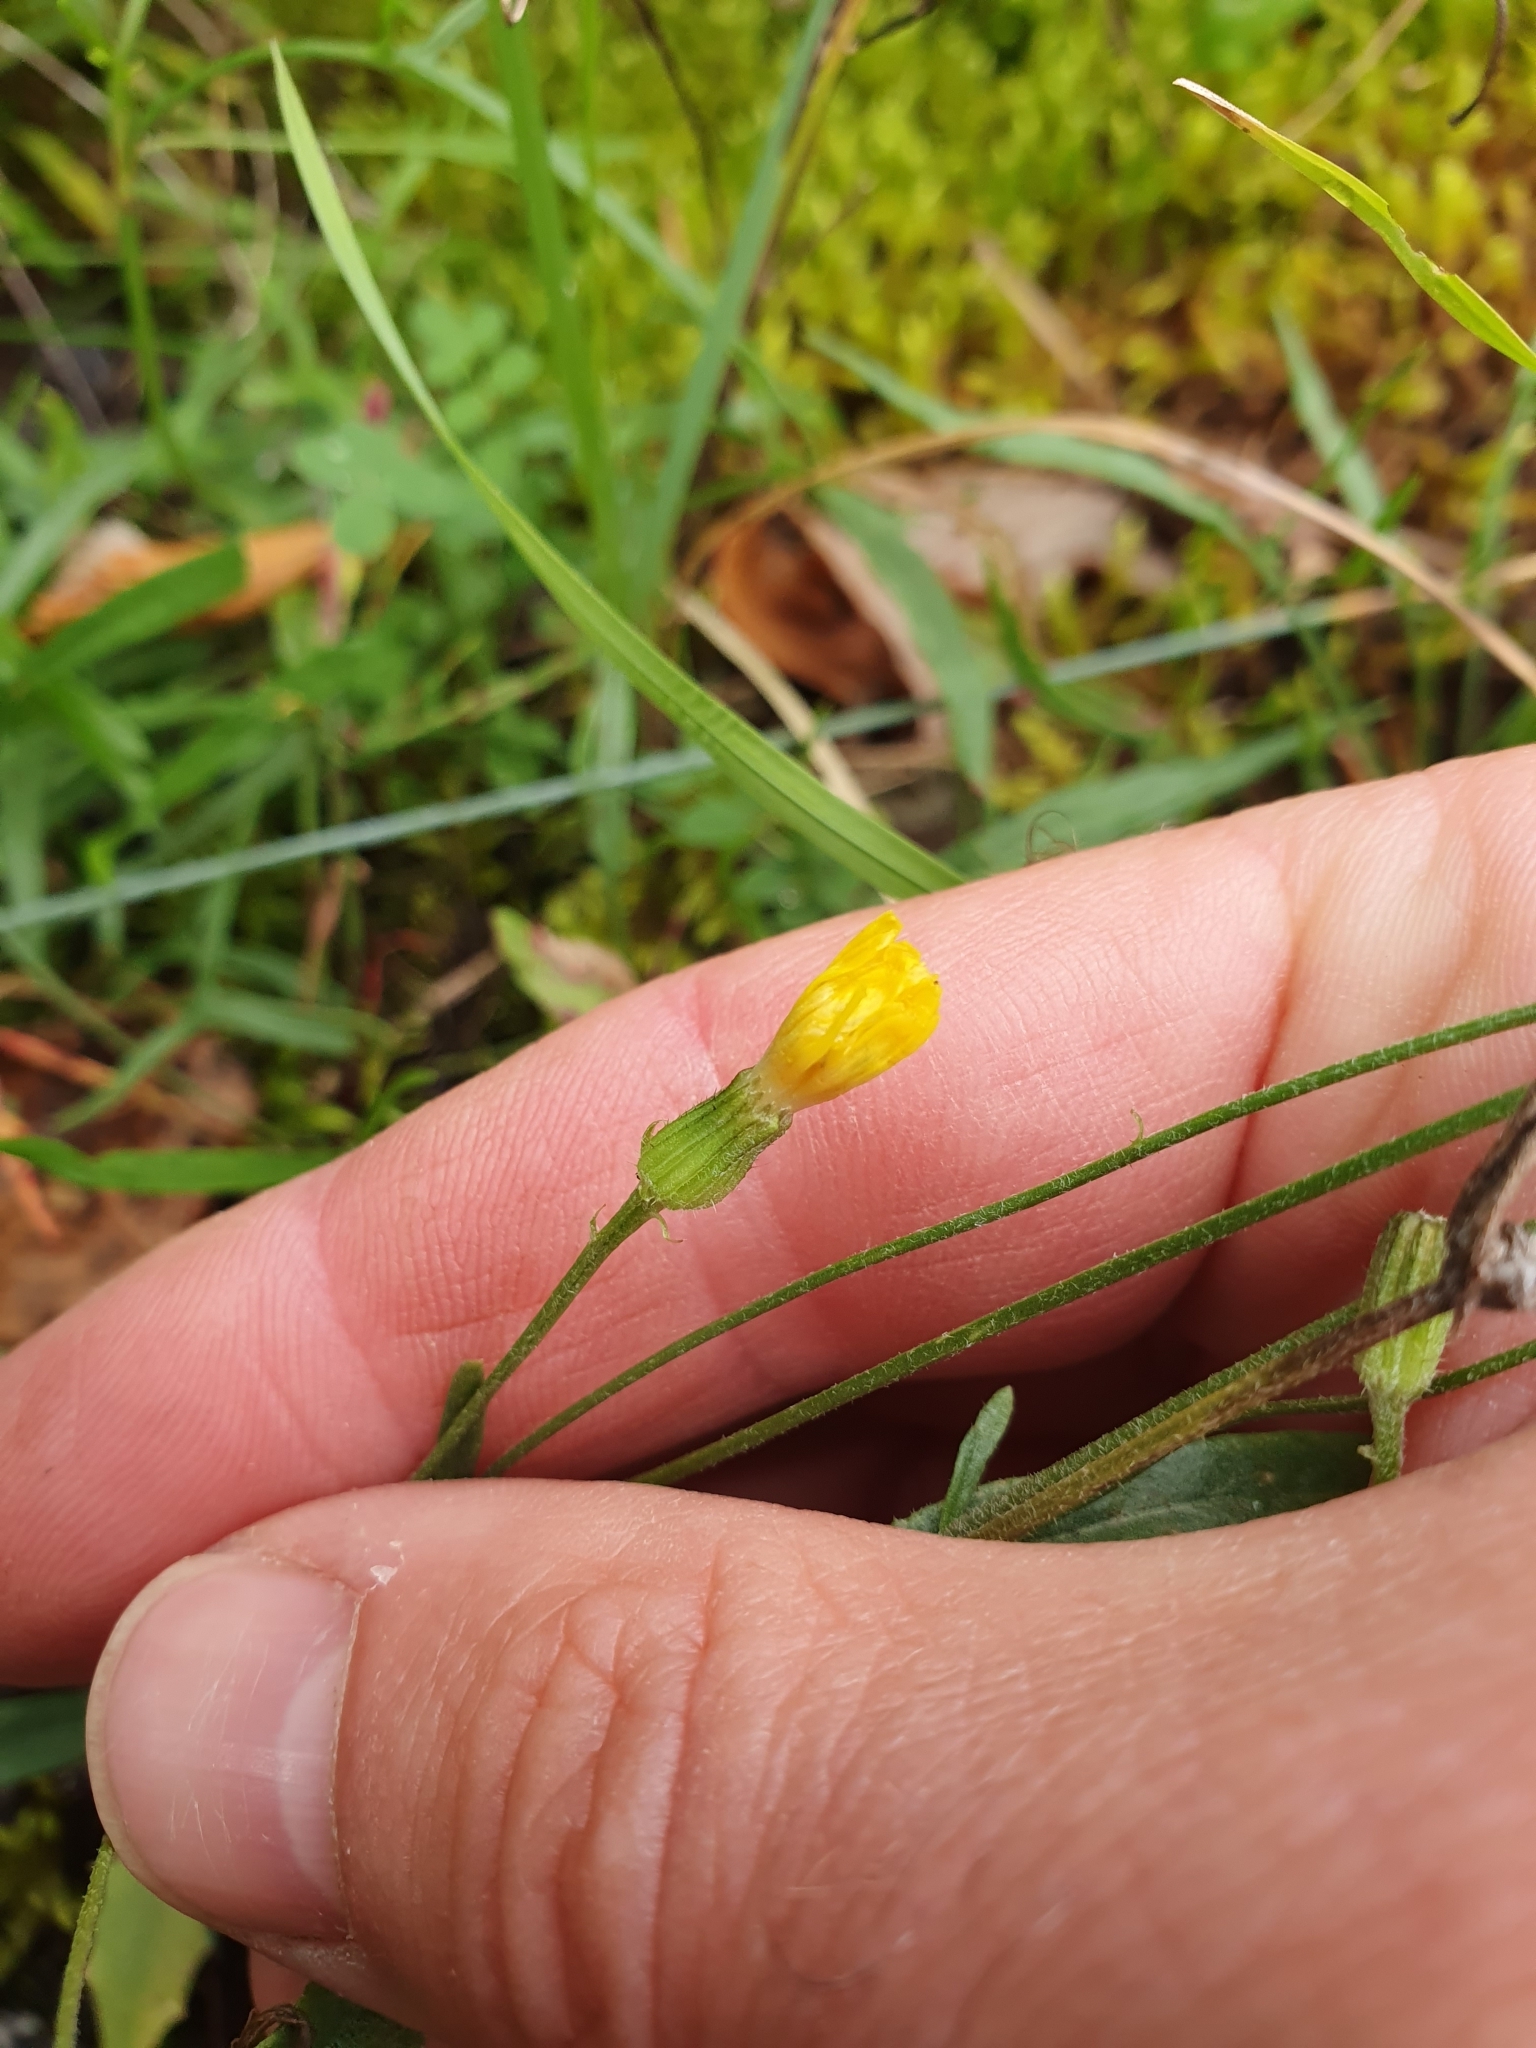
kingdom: Plantae
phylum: Tracheophyta
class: Magnoliopsida
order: Asterales
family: Asteraceae
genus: Crepis
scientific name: Crepis tectorum
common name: Narrow-leaved hawk's-beard
